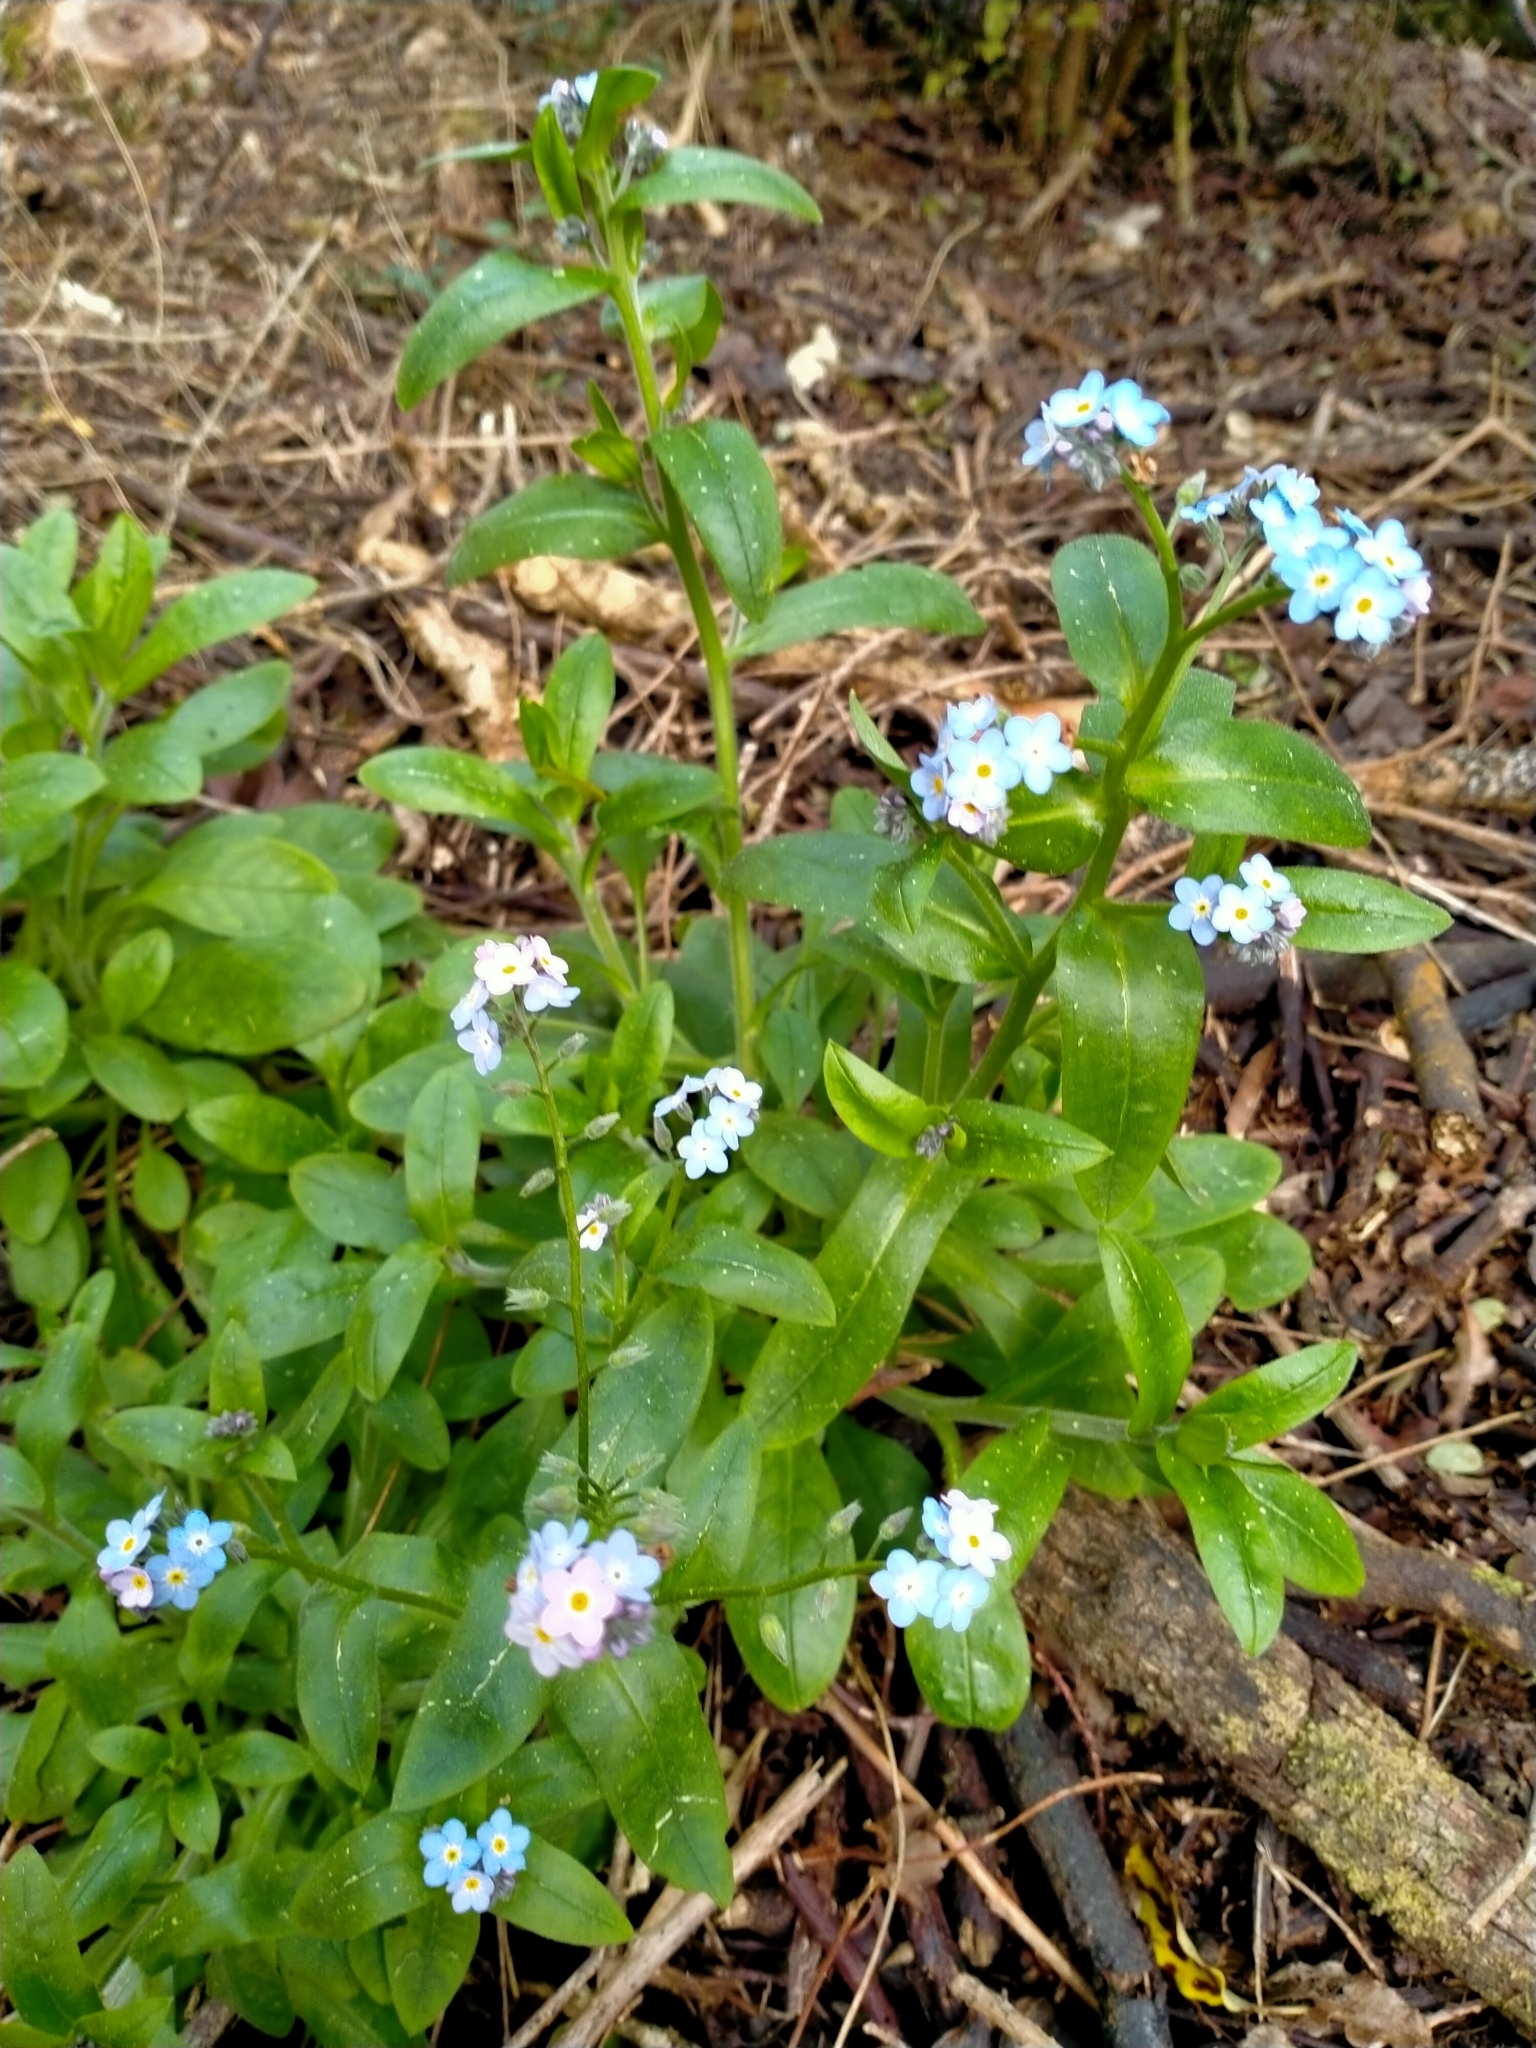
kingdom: Plantae
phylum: Tracheophyta
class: Magnoliopsida
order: Boraginales
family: Boraginaceae
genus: Myosotis
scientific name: Myosotis sylvatica
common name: Wood forget-me-not
